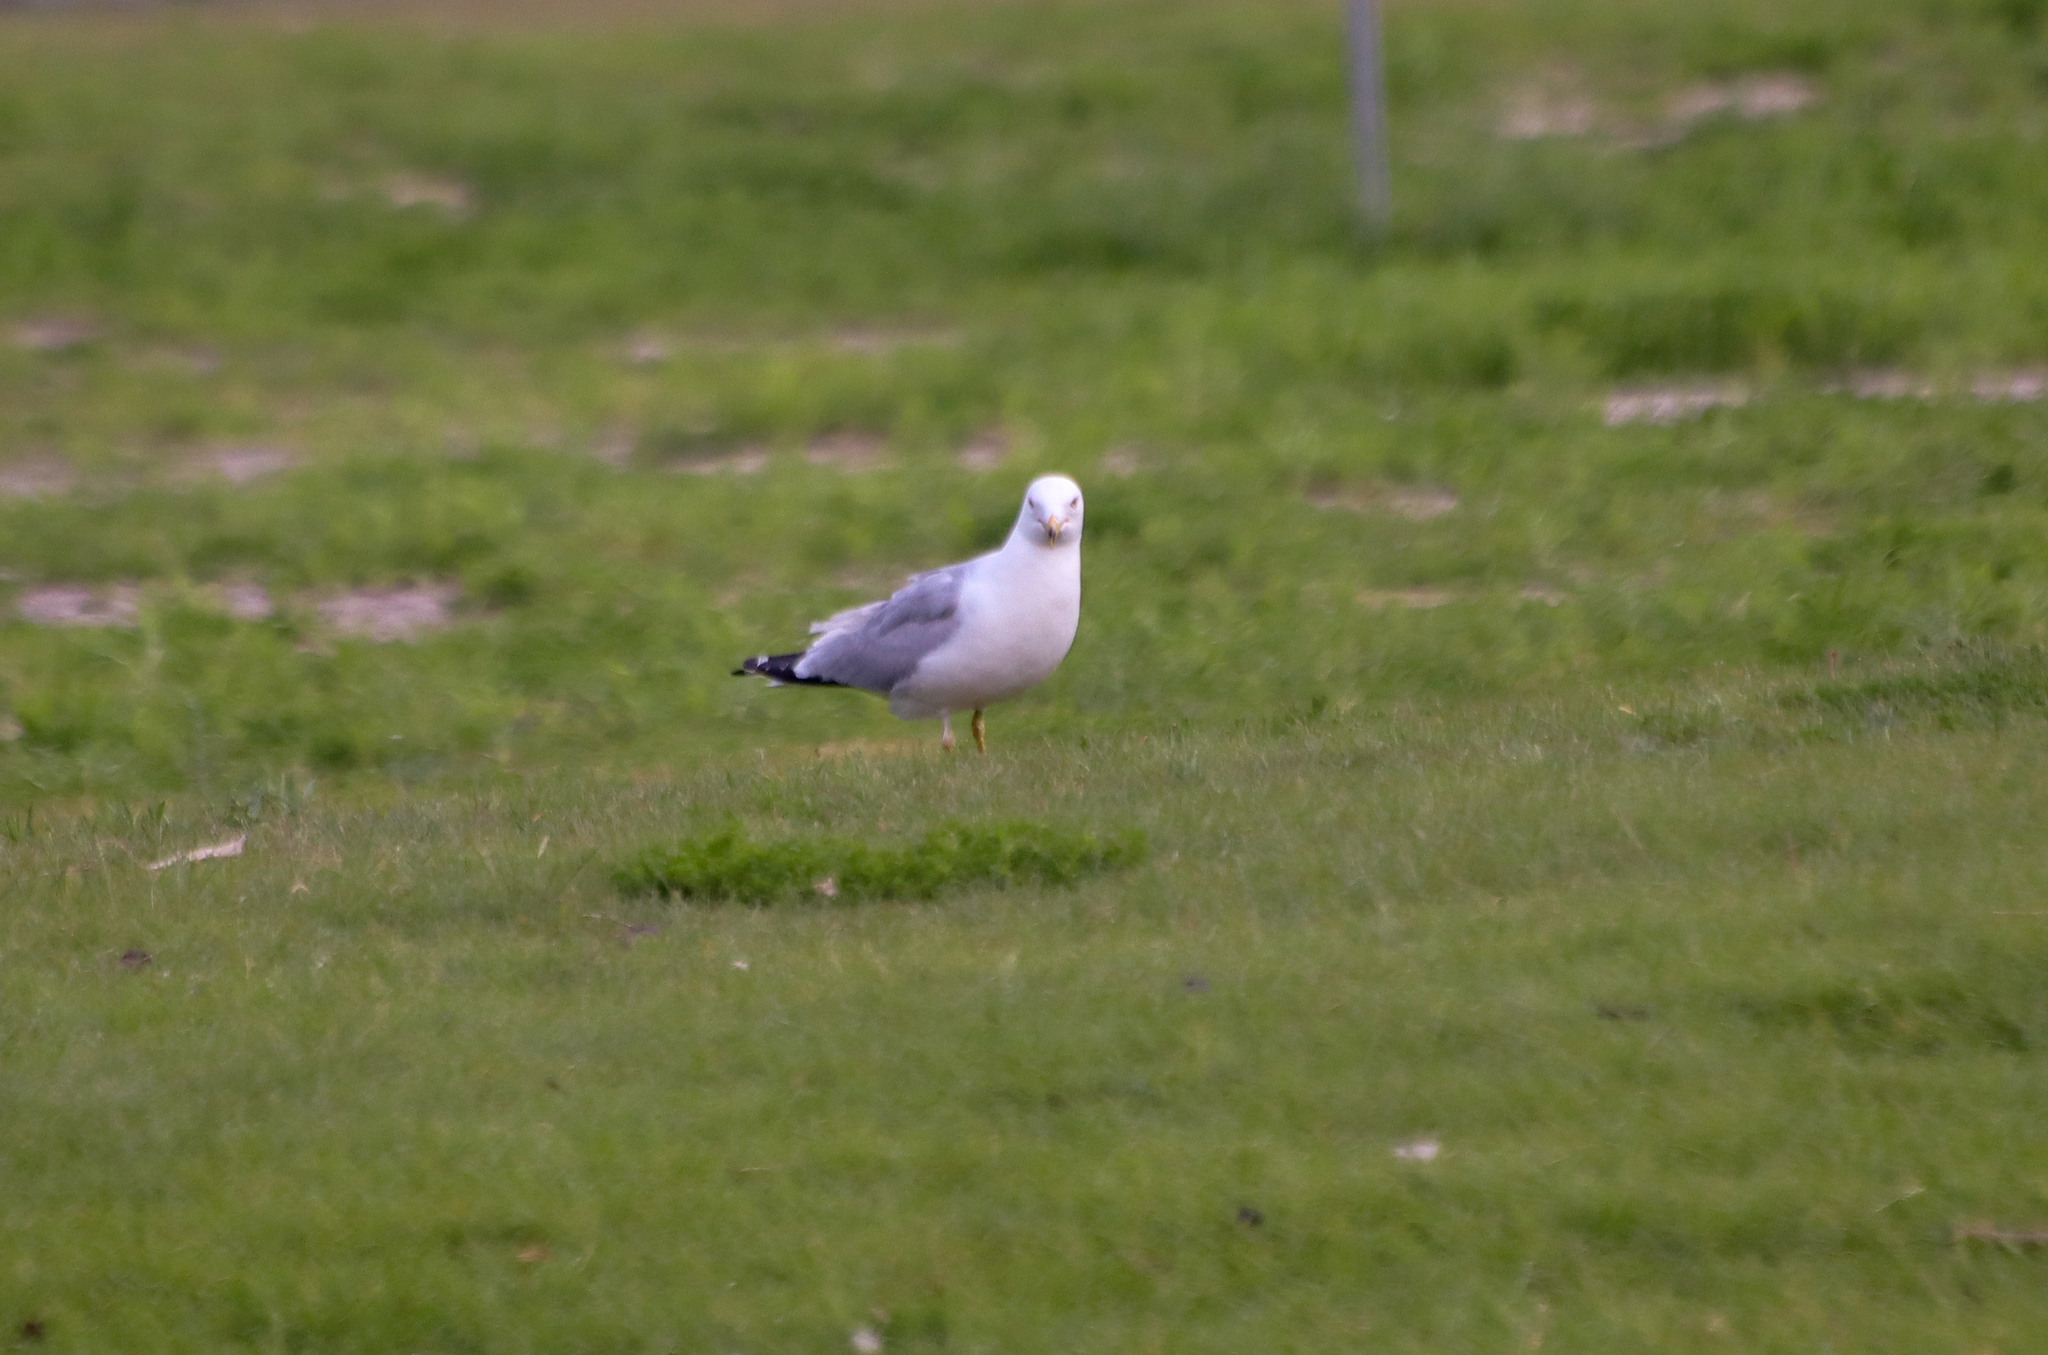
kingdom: Animalia
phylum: Chordata
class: Aves
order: Charadriiformes
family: Laridae
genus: Larus
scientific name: Larus delawarensis
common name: Ring-billed gull
